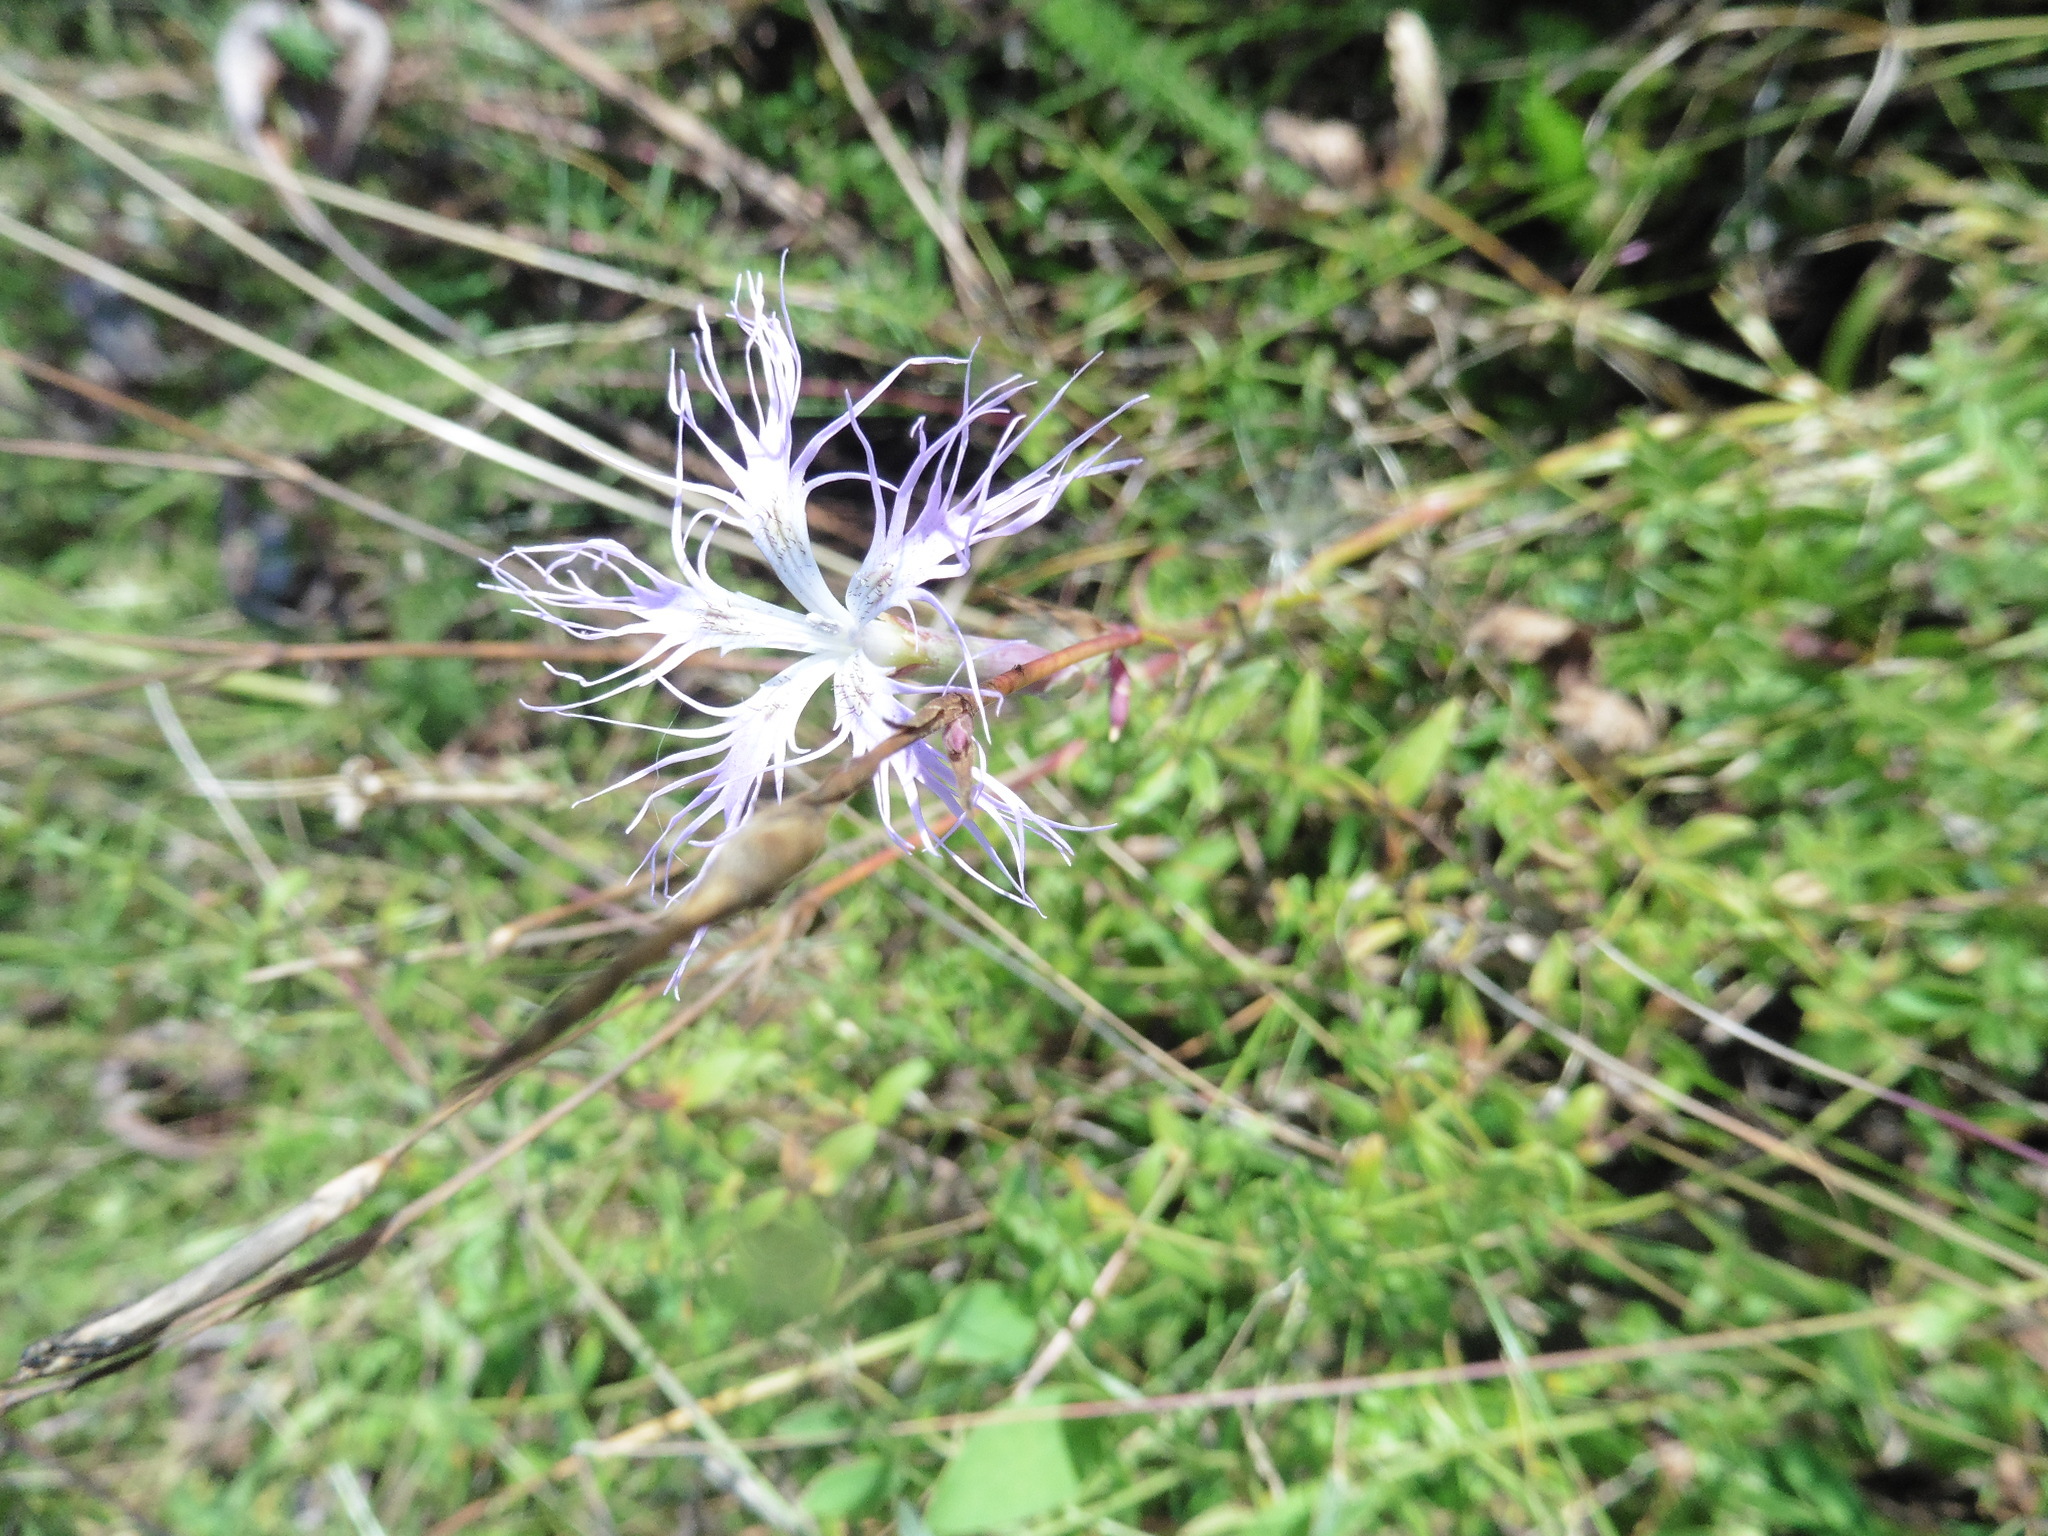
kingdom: Plantae
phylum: Tracheophyta
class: Magnoliopsida
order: Caryophyllales
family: Caryophyllaceae
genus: Dianthus
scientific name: Dianthus superbus
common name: Fringed pink
